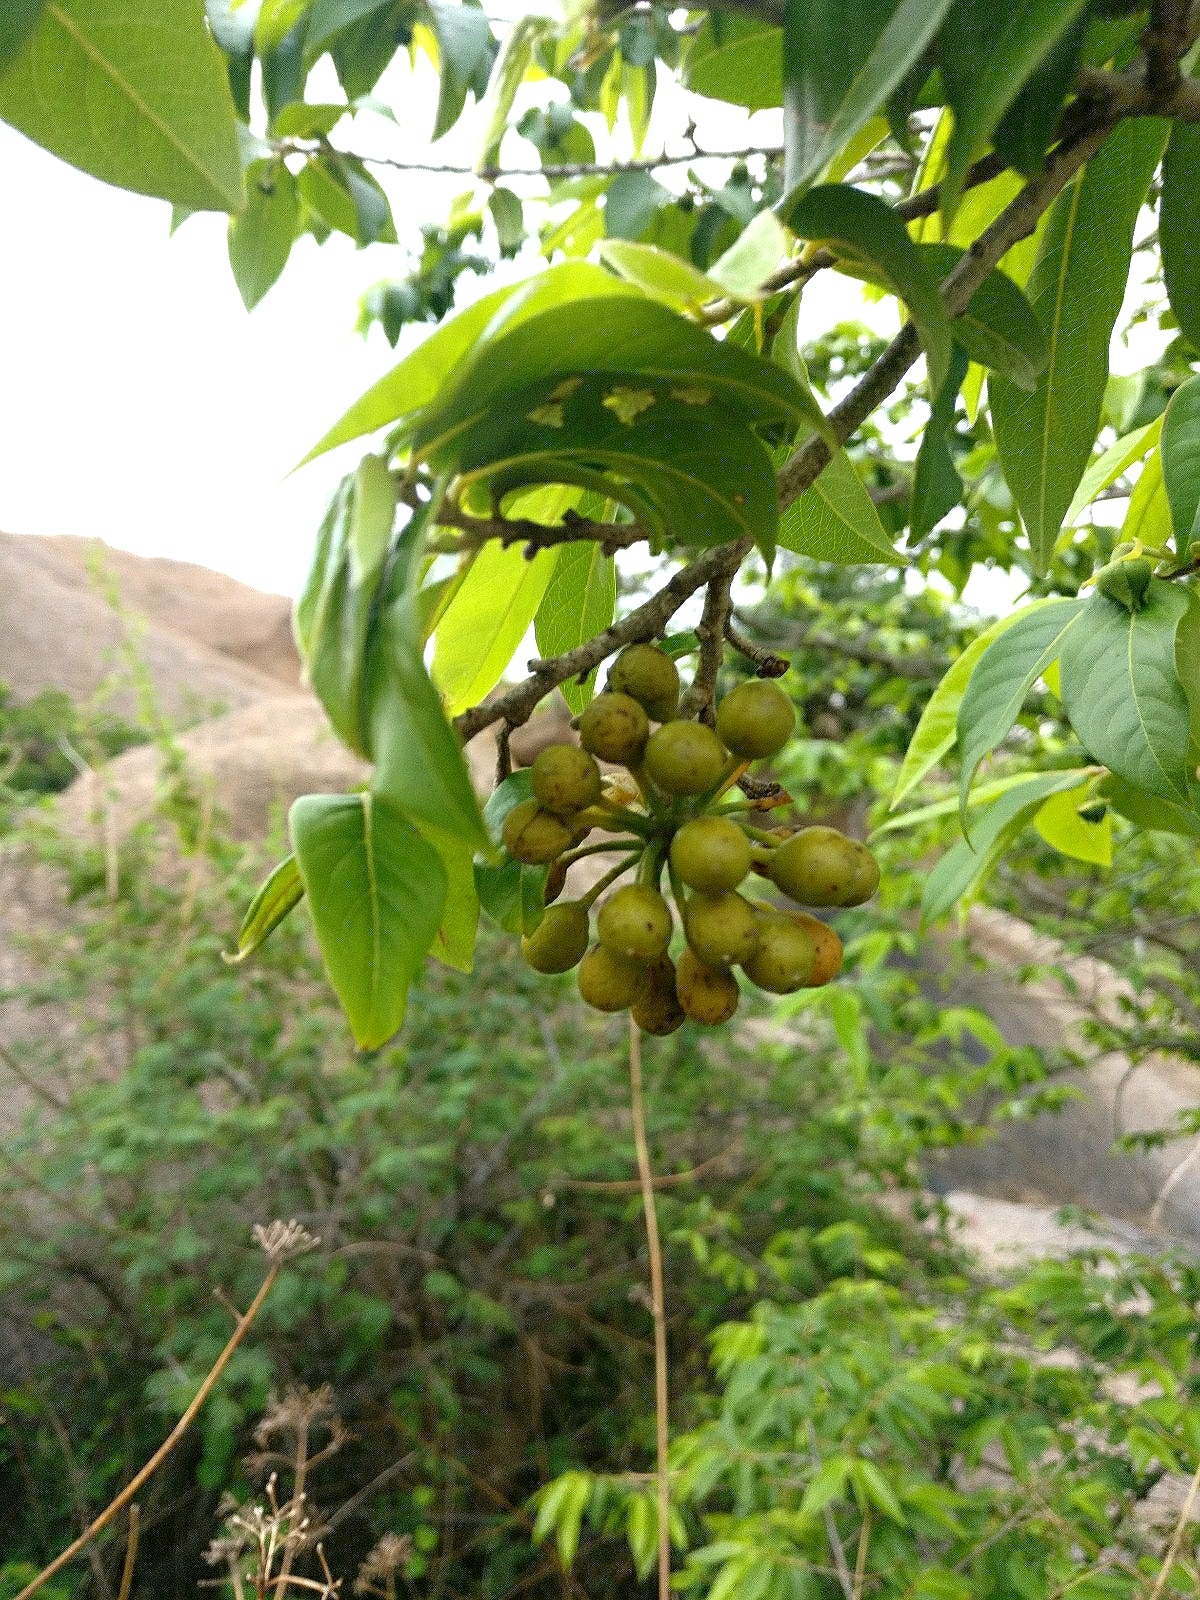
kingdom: Plantae
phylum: Tracheophyta
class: Magnoliopsida
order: Magnoliales
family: Annonaceae
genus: Hubera
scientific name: Hubera cerasoides
